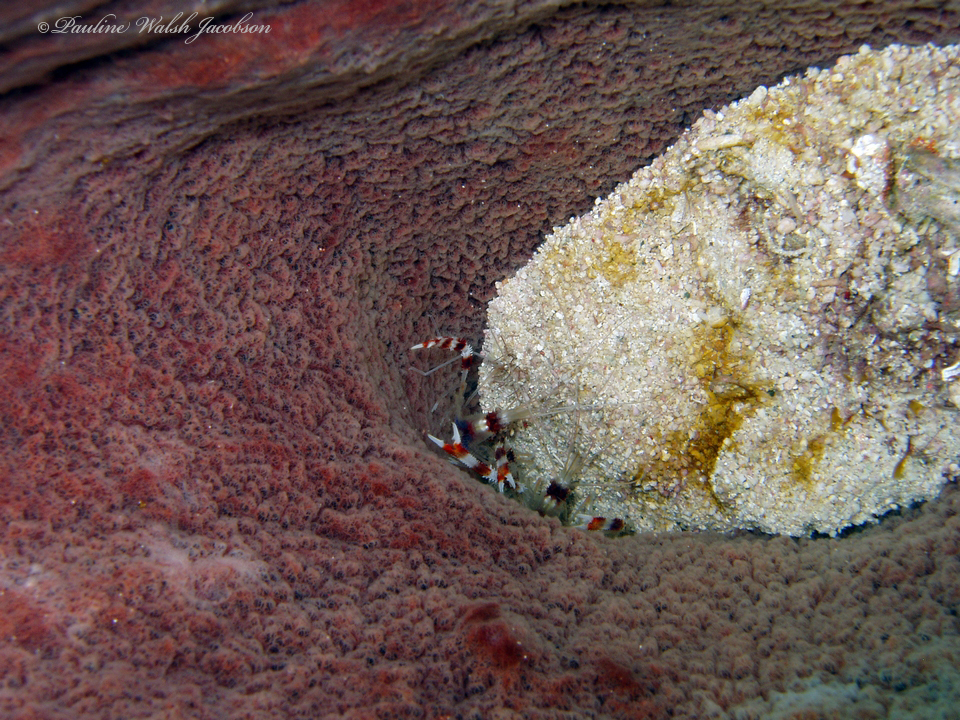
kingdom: Animalia
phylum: Arthropoda
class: Malacostraca
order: Decapoda
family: Stenopodidae
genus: Stenopus
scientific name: Stenopus hispidus
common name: Banded coral shrimp
